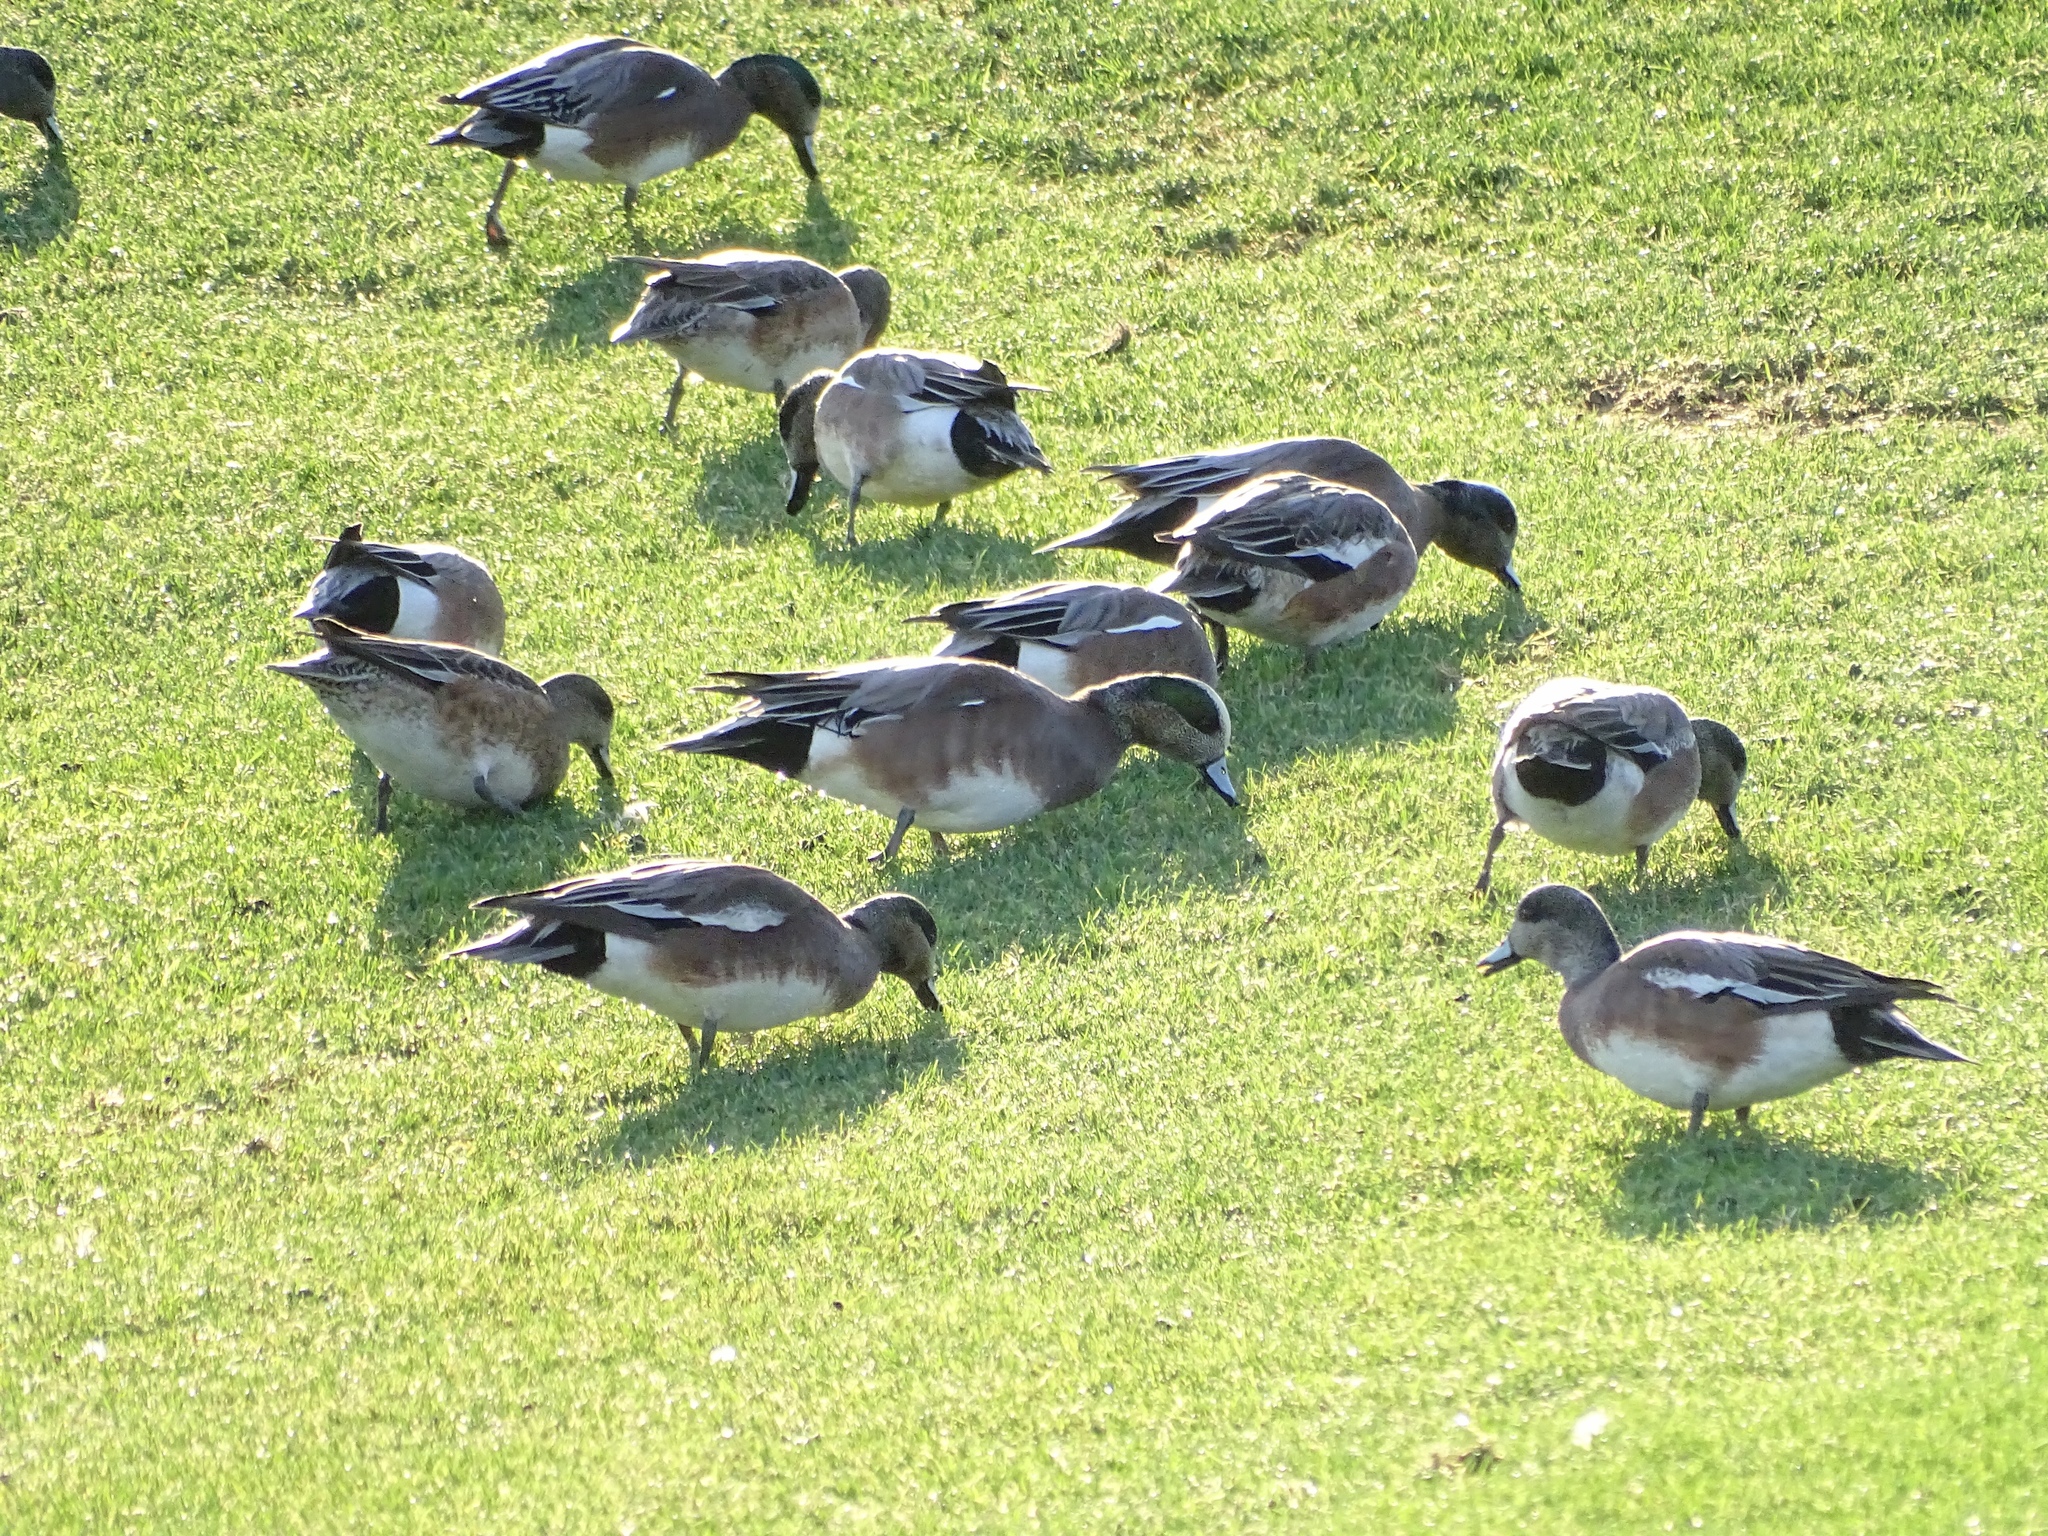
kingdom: Animalia
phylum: Chordata
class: Aves
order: Anseriformes
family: Anatidae
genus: Mareca
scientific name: Mareca americana
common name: American wigeon
